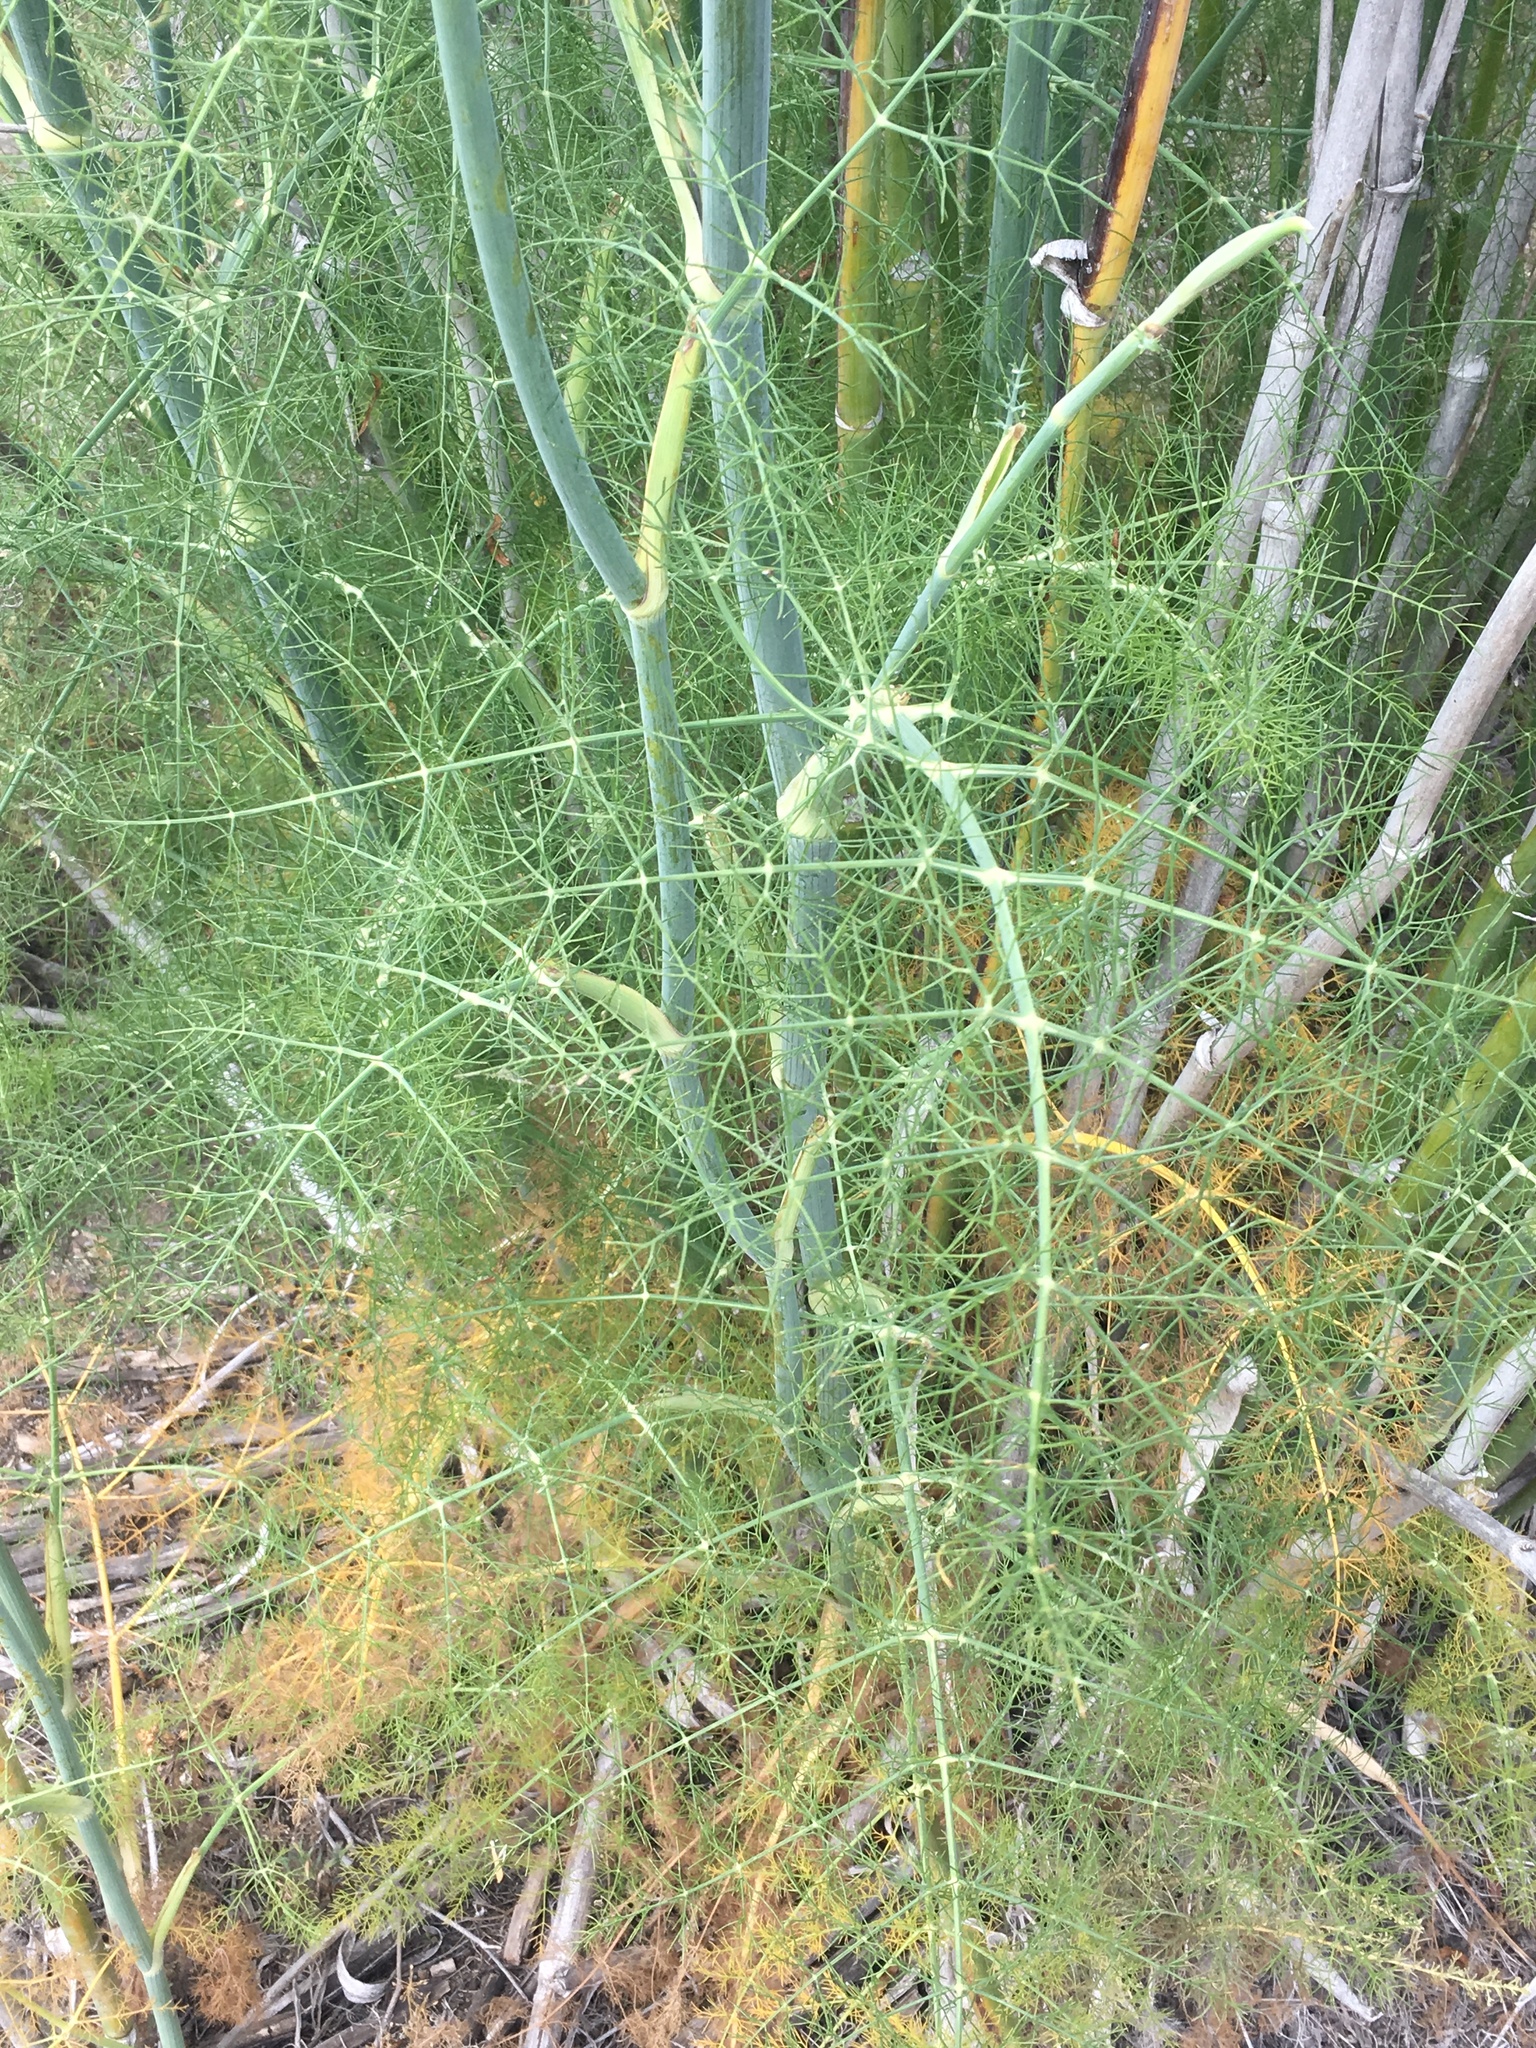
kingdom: Plantae
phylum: Tracheophyta
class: Magnoliopsida
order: Apiales
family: Apiaceae
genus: Foeniculum
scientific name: Foeniculum vulgare
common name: Fennel
